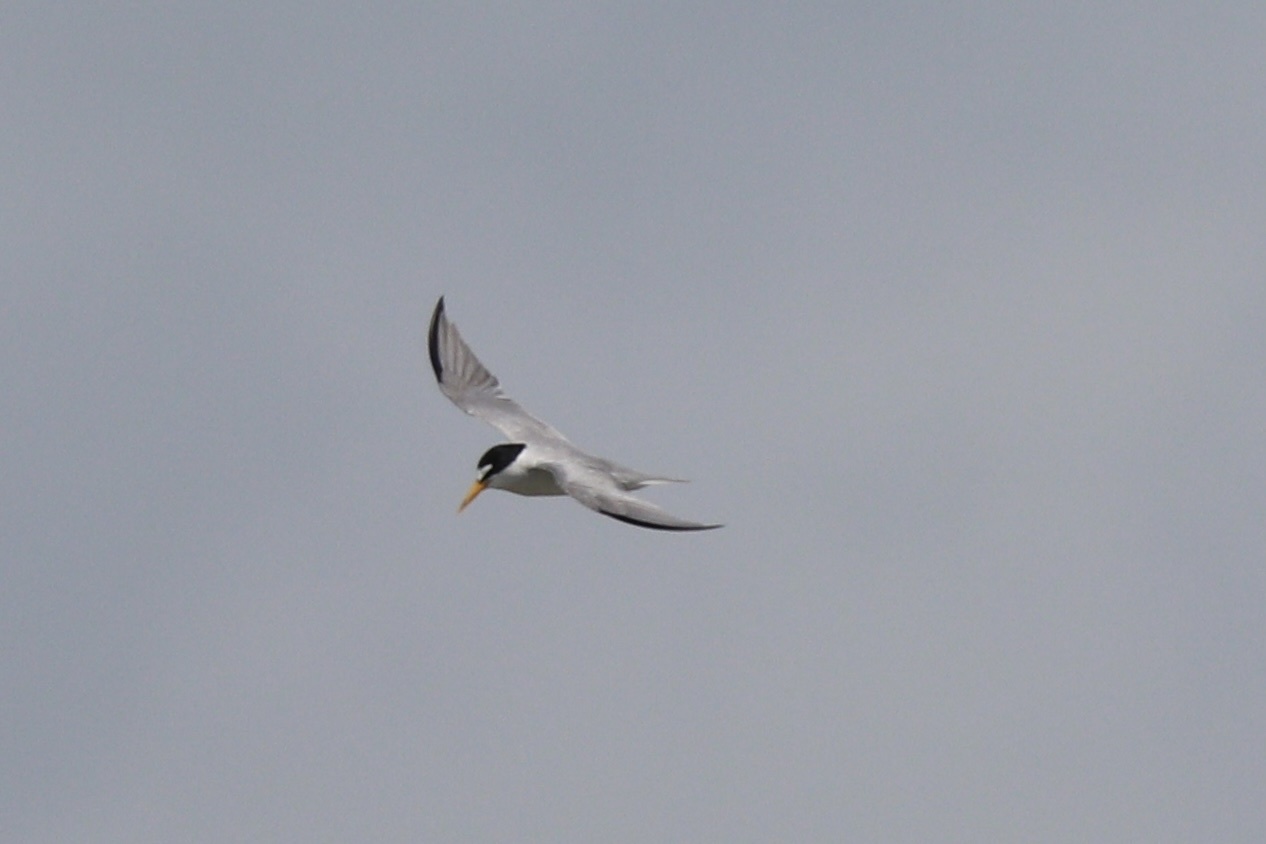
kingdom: Animalia
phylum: Chordata
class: Aves
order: Charadriiformes
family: Laridae
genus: Sternula
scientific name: Sternula antillarum
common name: Least tern
